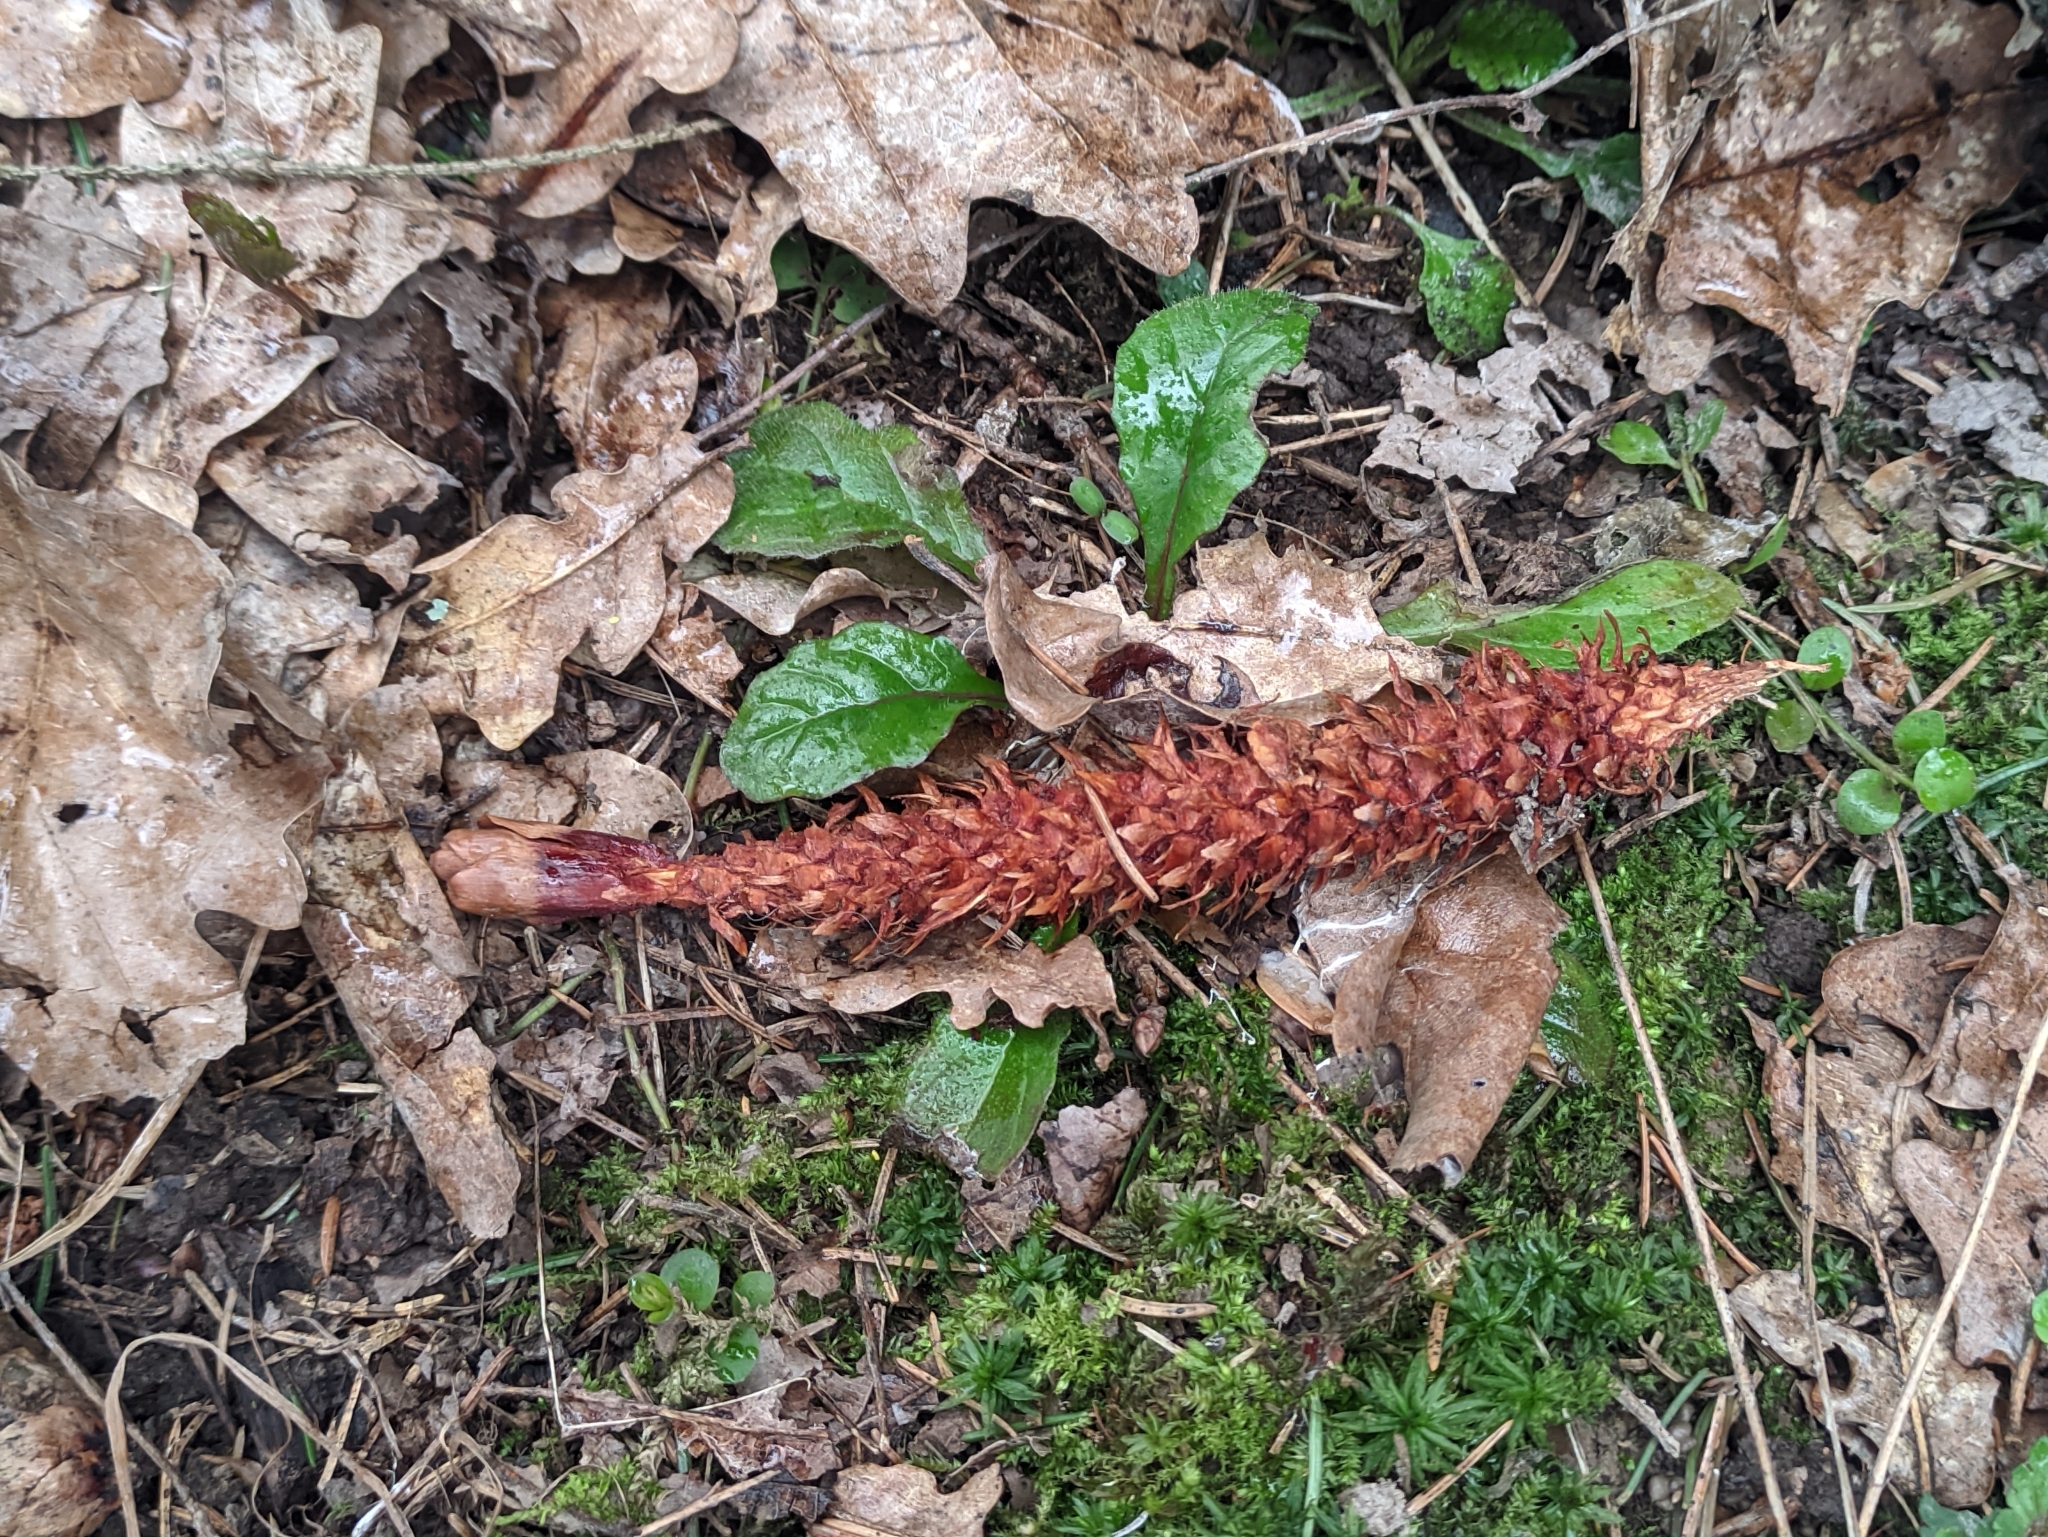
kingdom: Animalia
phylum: Chordata
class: Mammalia
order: Rodentia
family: Sciuridae
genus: Sciurus
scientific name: Sciurus vulgaris
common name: Eurasian red squirrel
